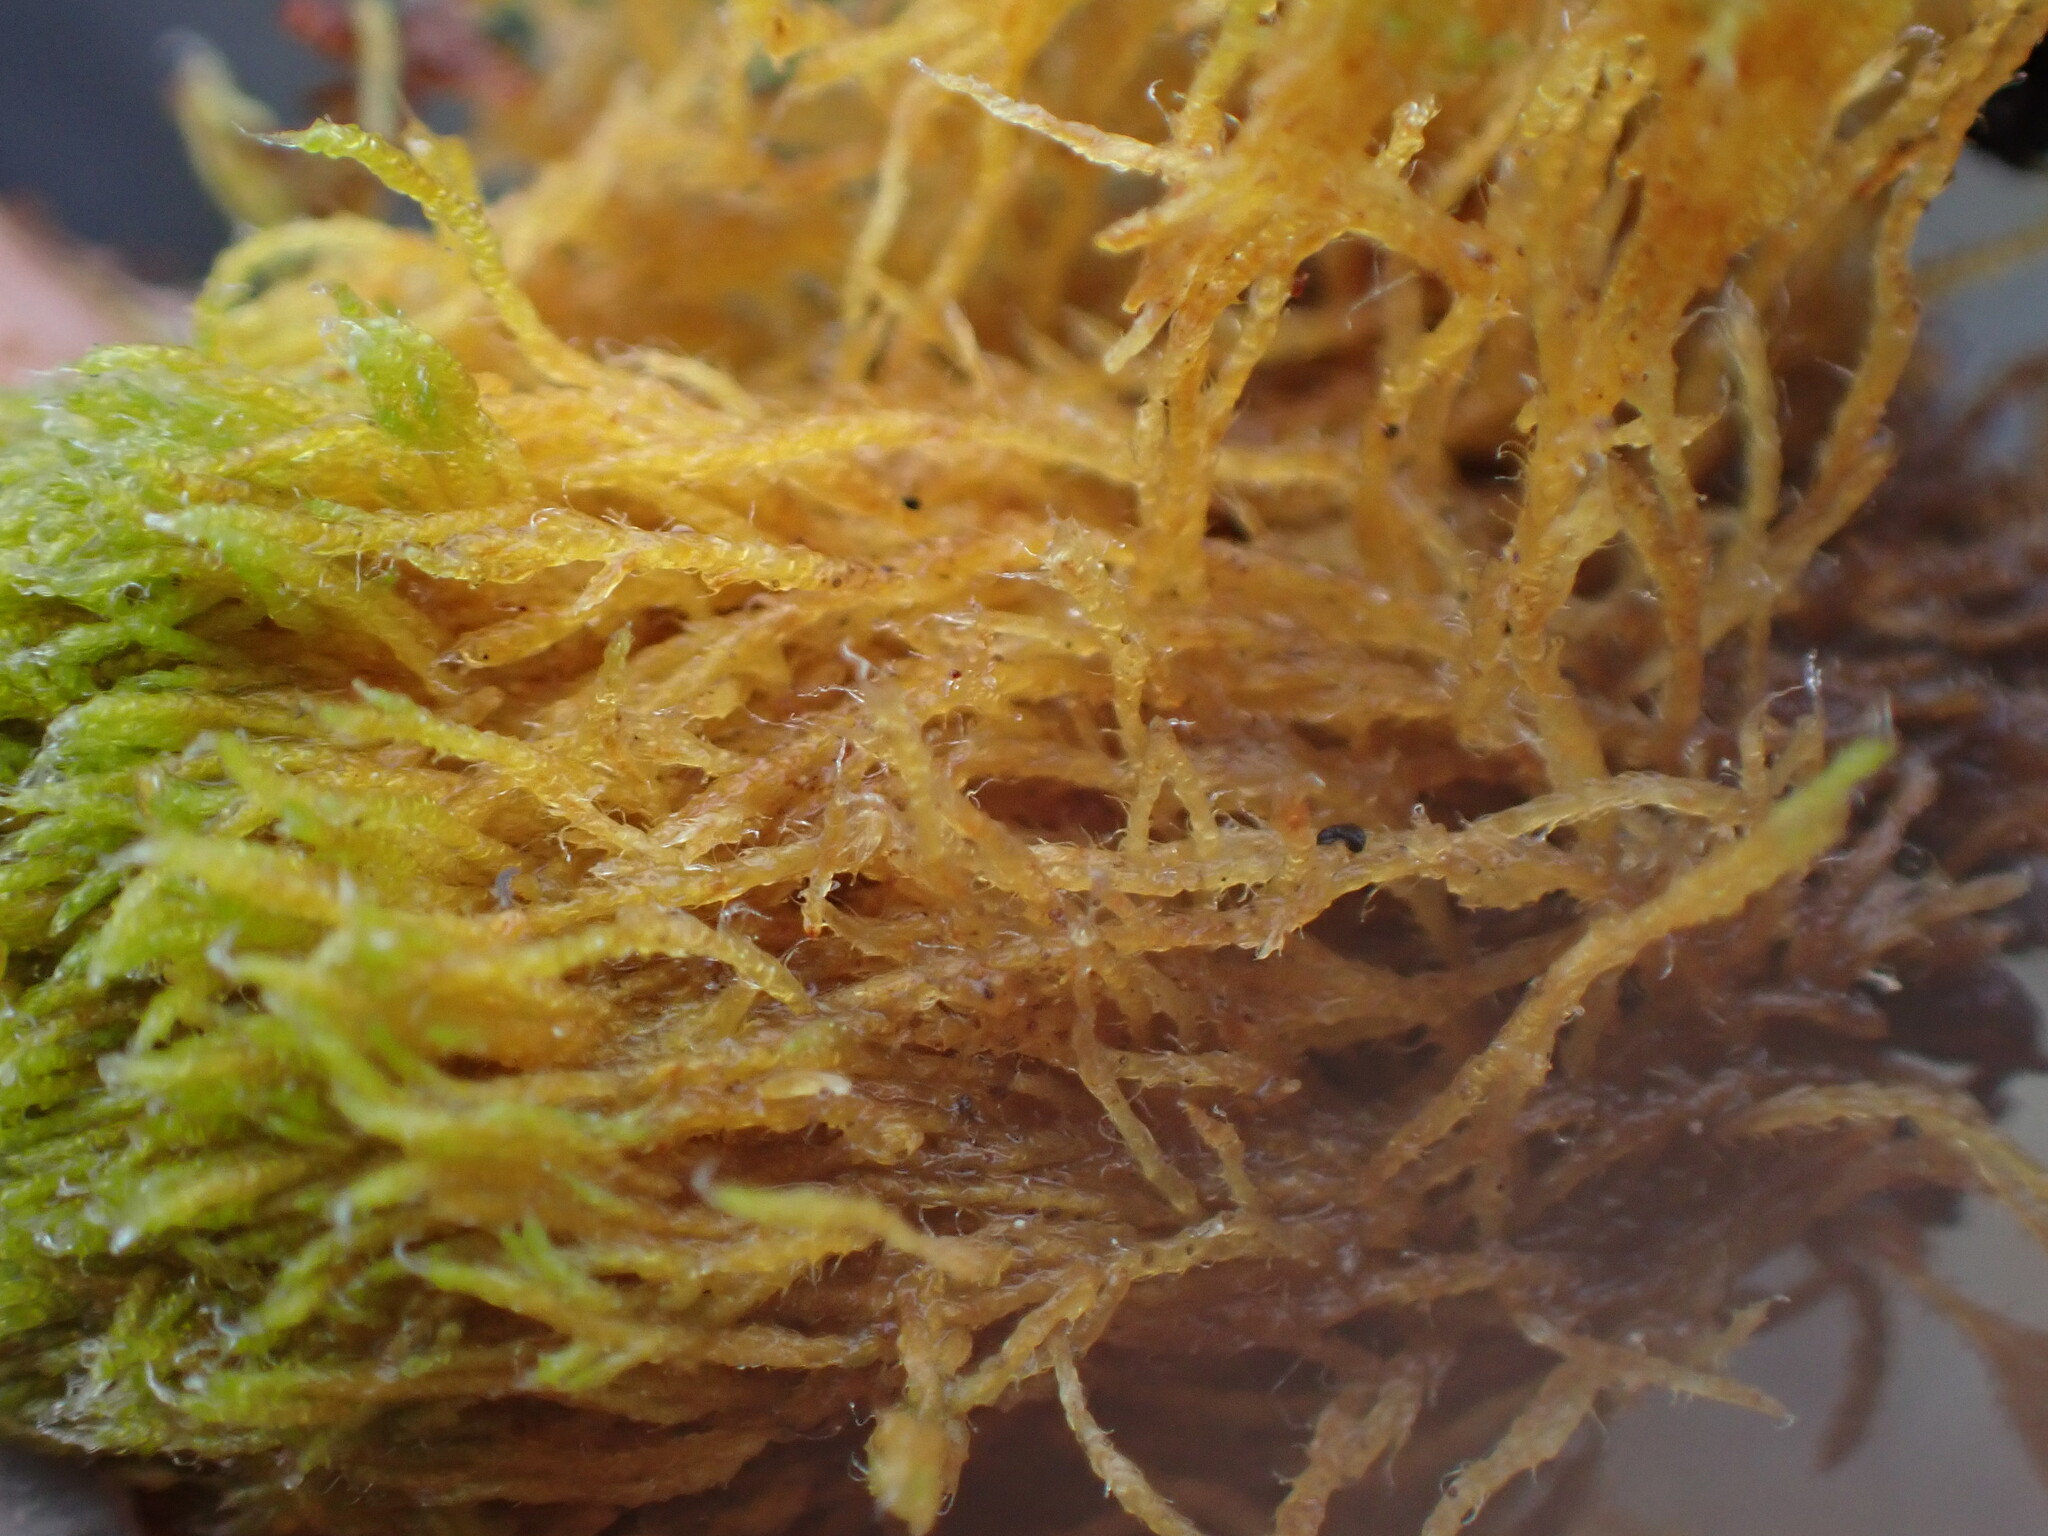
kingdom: Plantae
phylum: Bryophyta
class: Bryopsida
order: Hypnales
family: Leskeaceae
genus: Iwatsukiella
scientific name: Iwatsukiella leucotricha
